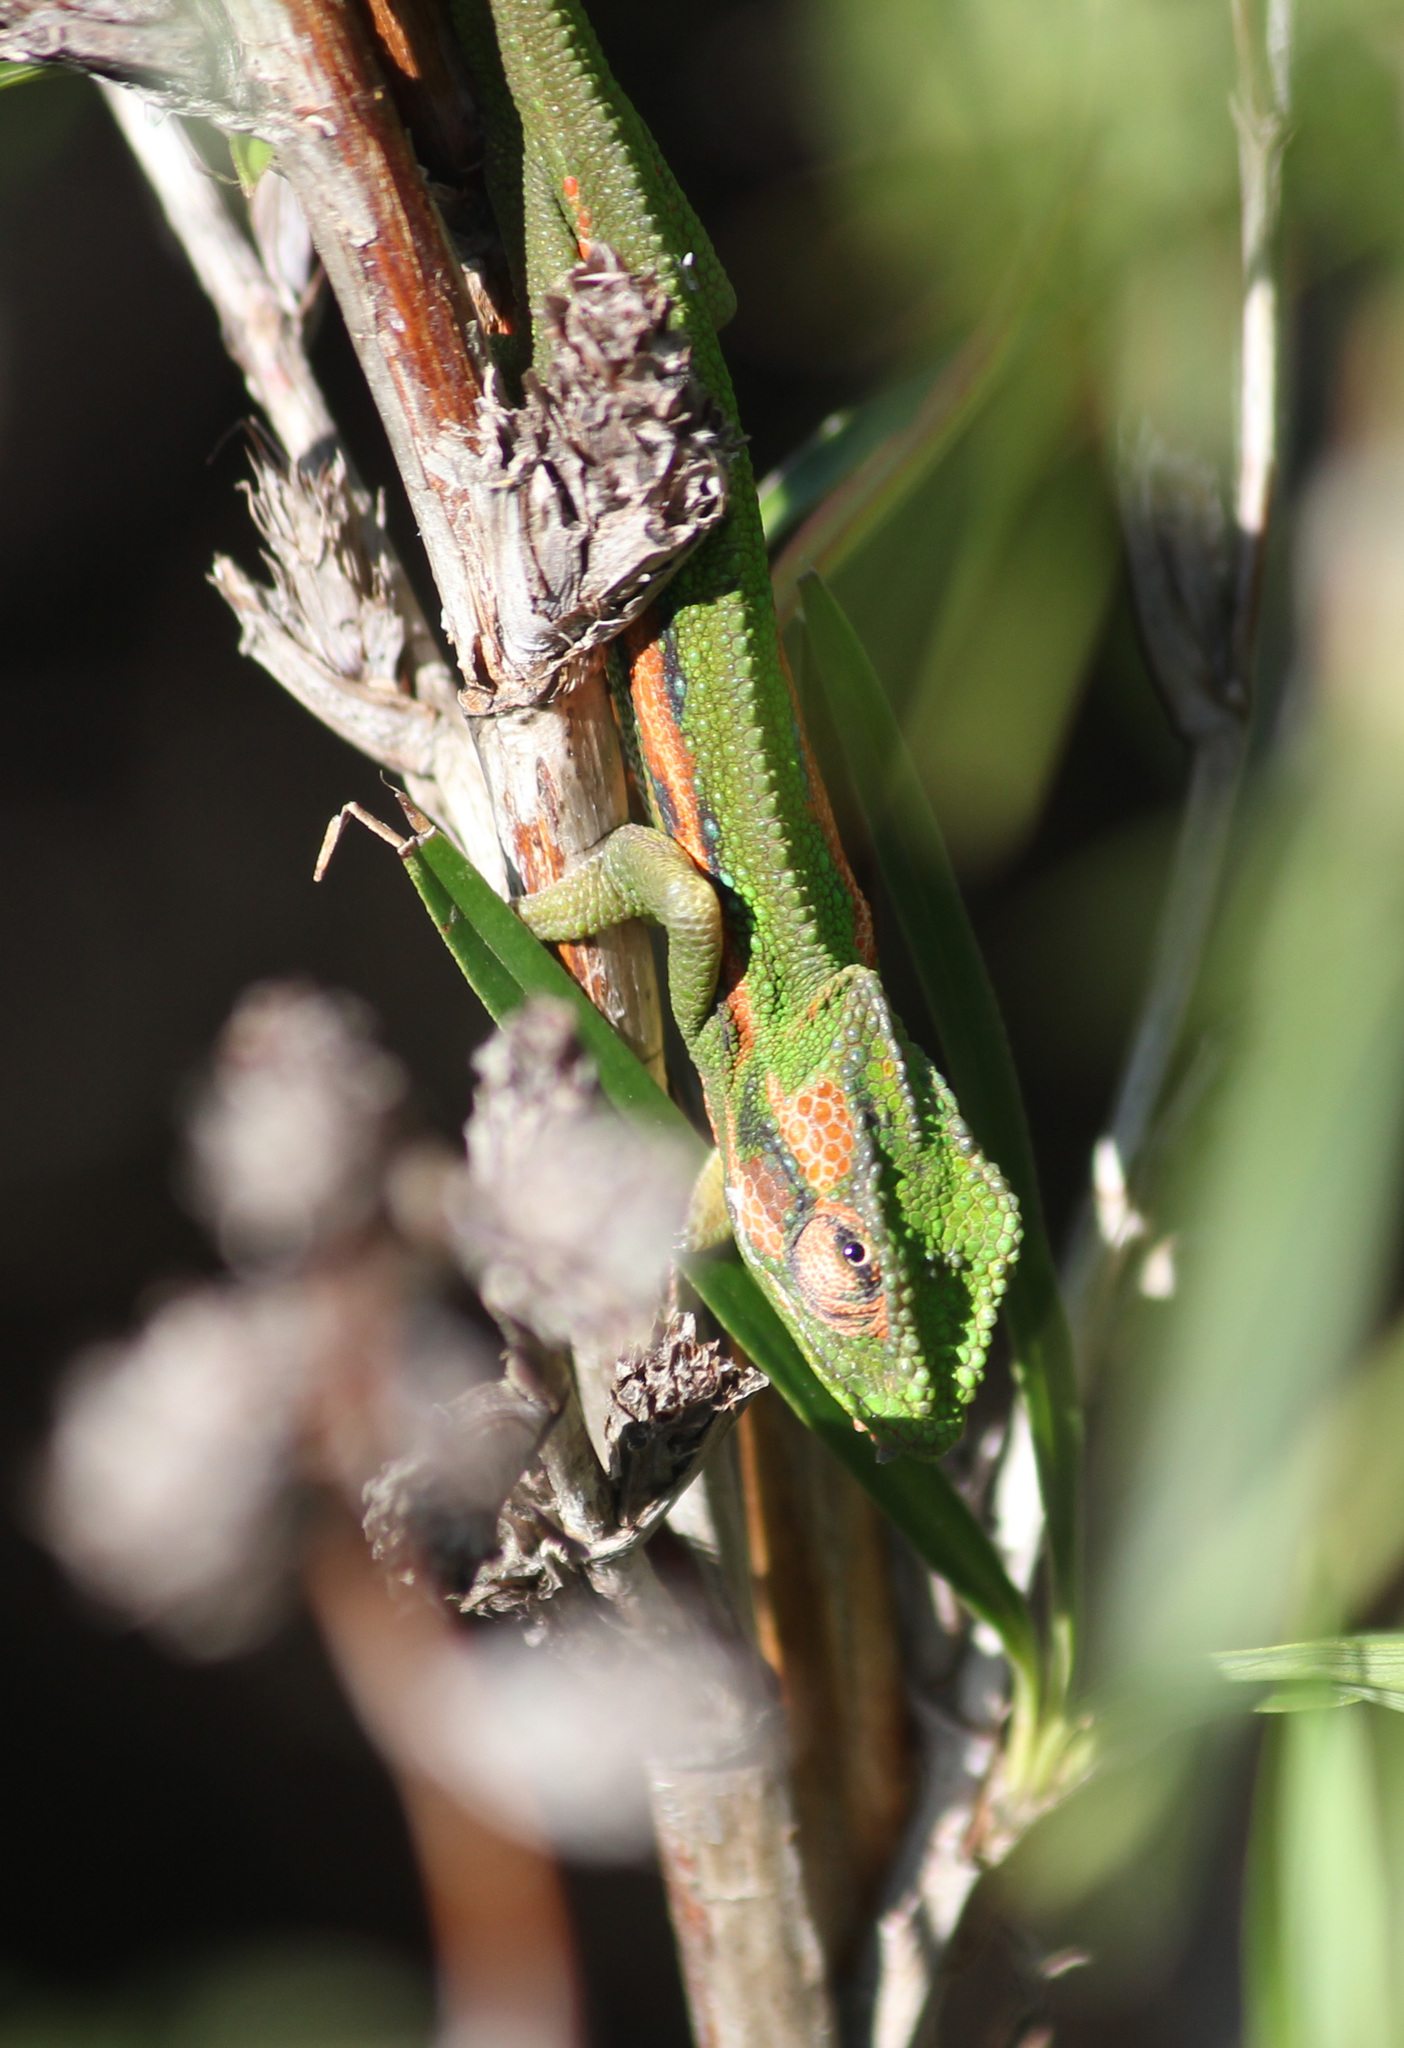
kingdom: Animalia
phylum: Chordata
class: Squamata
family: Chamaeleonidae
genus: Bradypodion
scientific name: Bradypodion pumilum
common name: Cape dwarf chameleon
